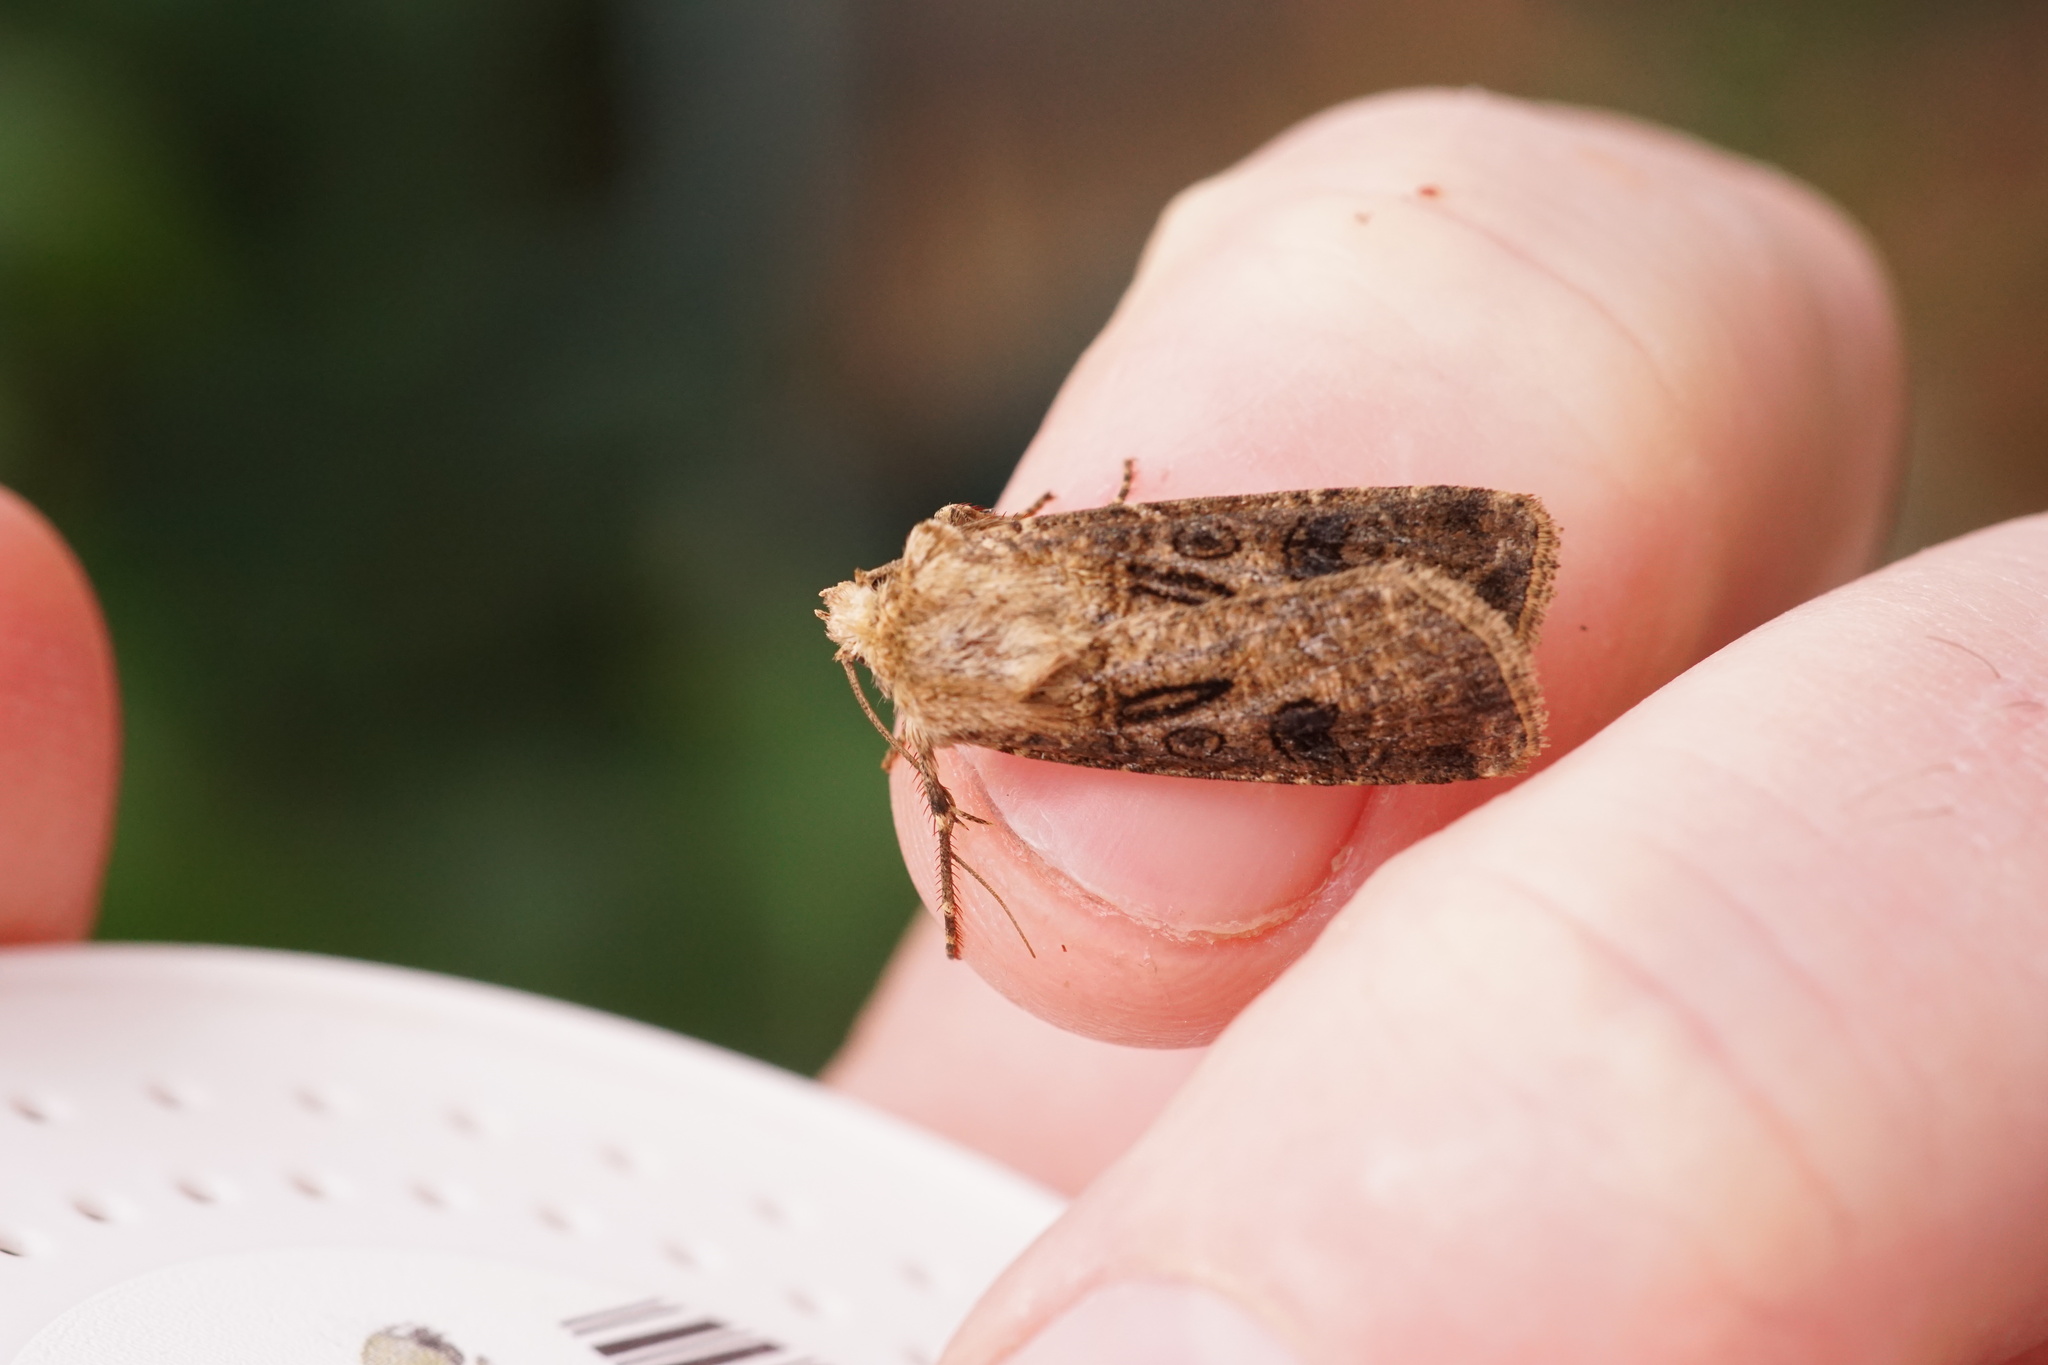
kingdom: Animalia
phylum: Arthropoda
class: Insecta
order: Lepidoptera
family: Noctuidae
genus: Agrotis
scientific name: Agrotis clavis
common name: Heart and club
